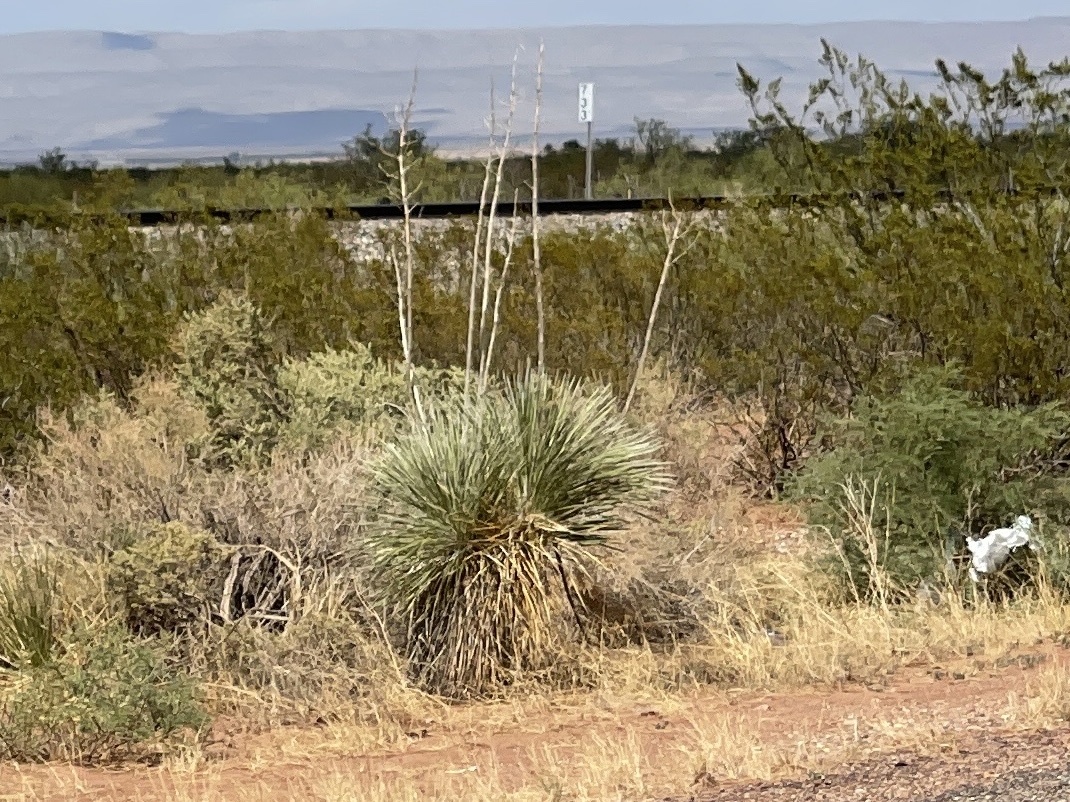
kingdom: Plantae
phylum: Tracheophyta
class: Liliopsida
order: Asparagales
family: Asparagaceae
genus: Yucca
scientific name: Yucca elata
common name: Palmella
